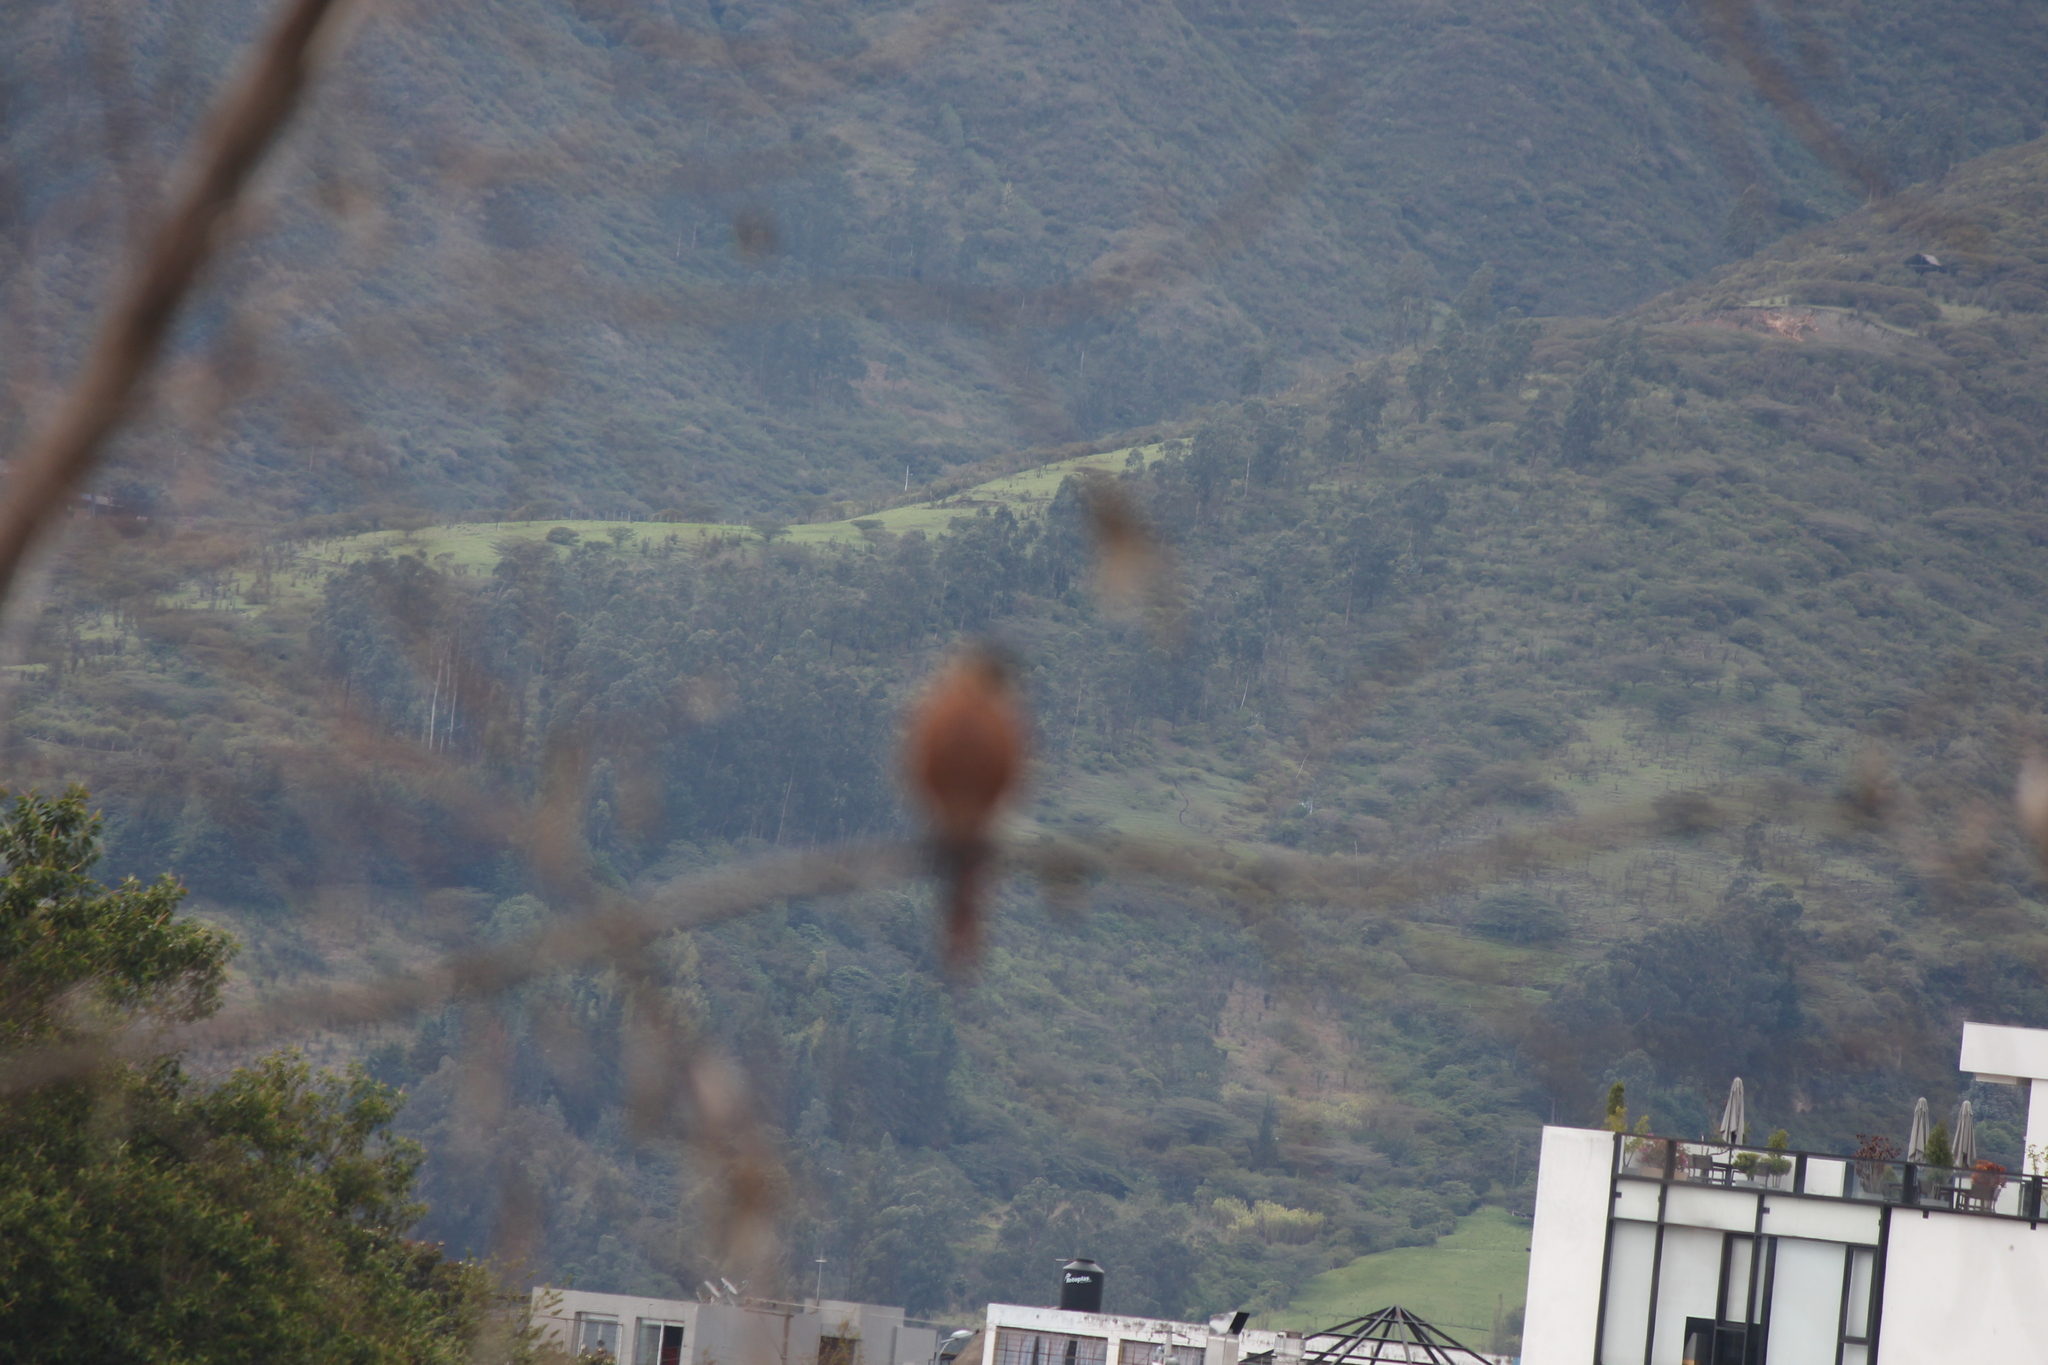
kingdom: Animalia
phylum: Chordata
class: Aves
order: Falconiformes
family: Falconidae
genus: Falco
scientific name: Falco sparverius
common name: American kestrel
